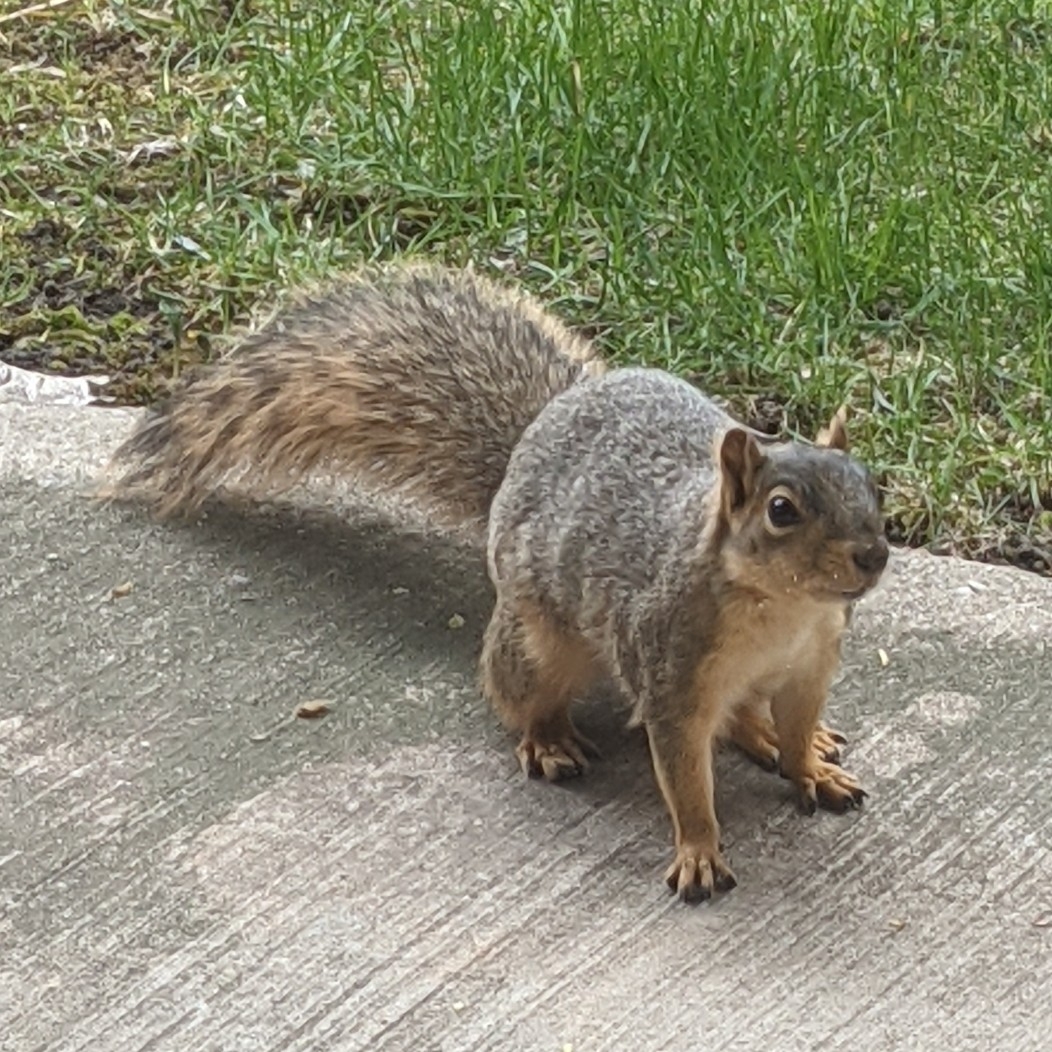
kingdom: Animalia
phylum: Chordata
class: Mammalia
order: Rodentia
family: Sciuridae
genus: Sciurus
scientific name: Sciurus niger
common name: Fox squirrel
